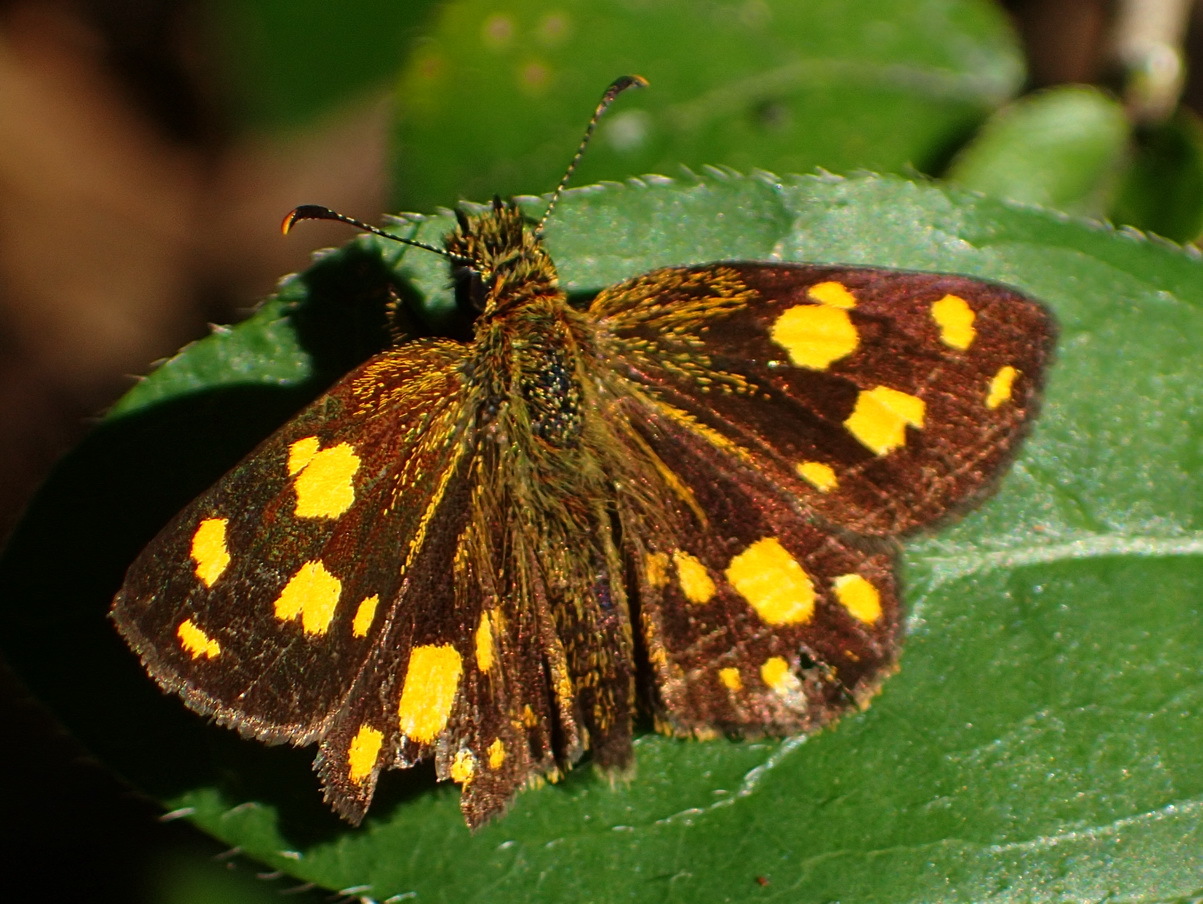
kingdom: Animalia
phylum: Arthropoda
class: Insecta
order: Lepidoptera
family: Hesperiidae
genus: Metisella
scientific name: Metisella metis
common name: Western gold-spotted sylph
